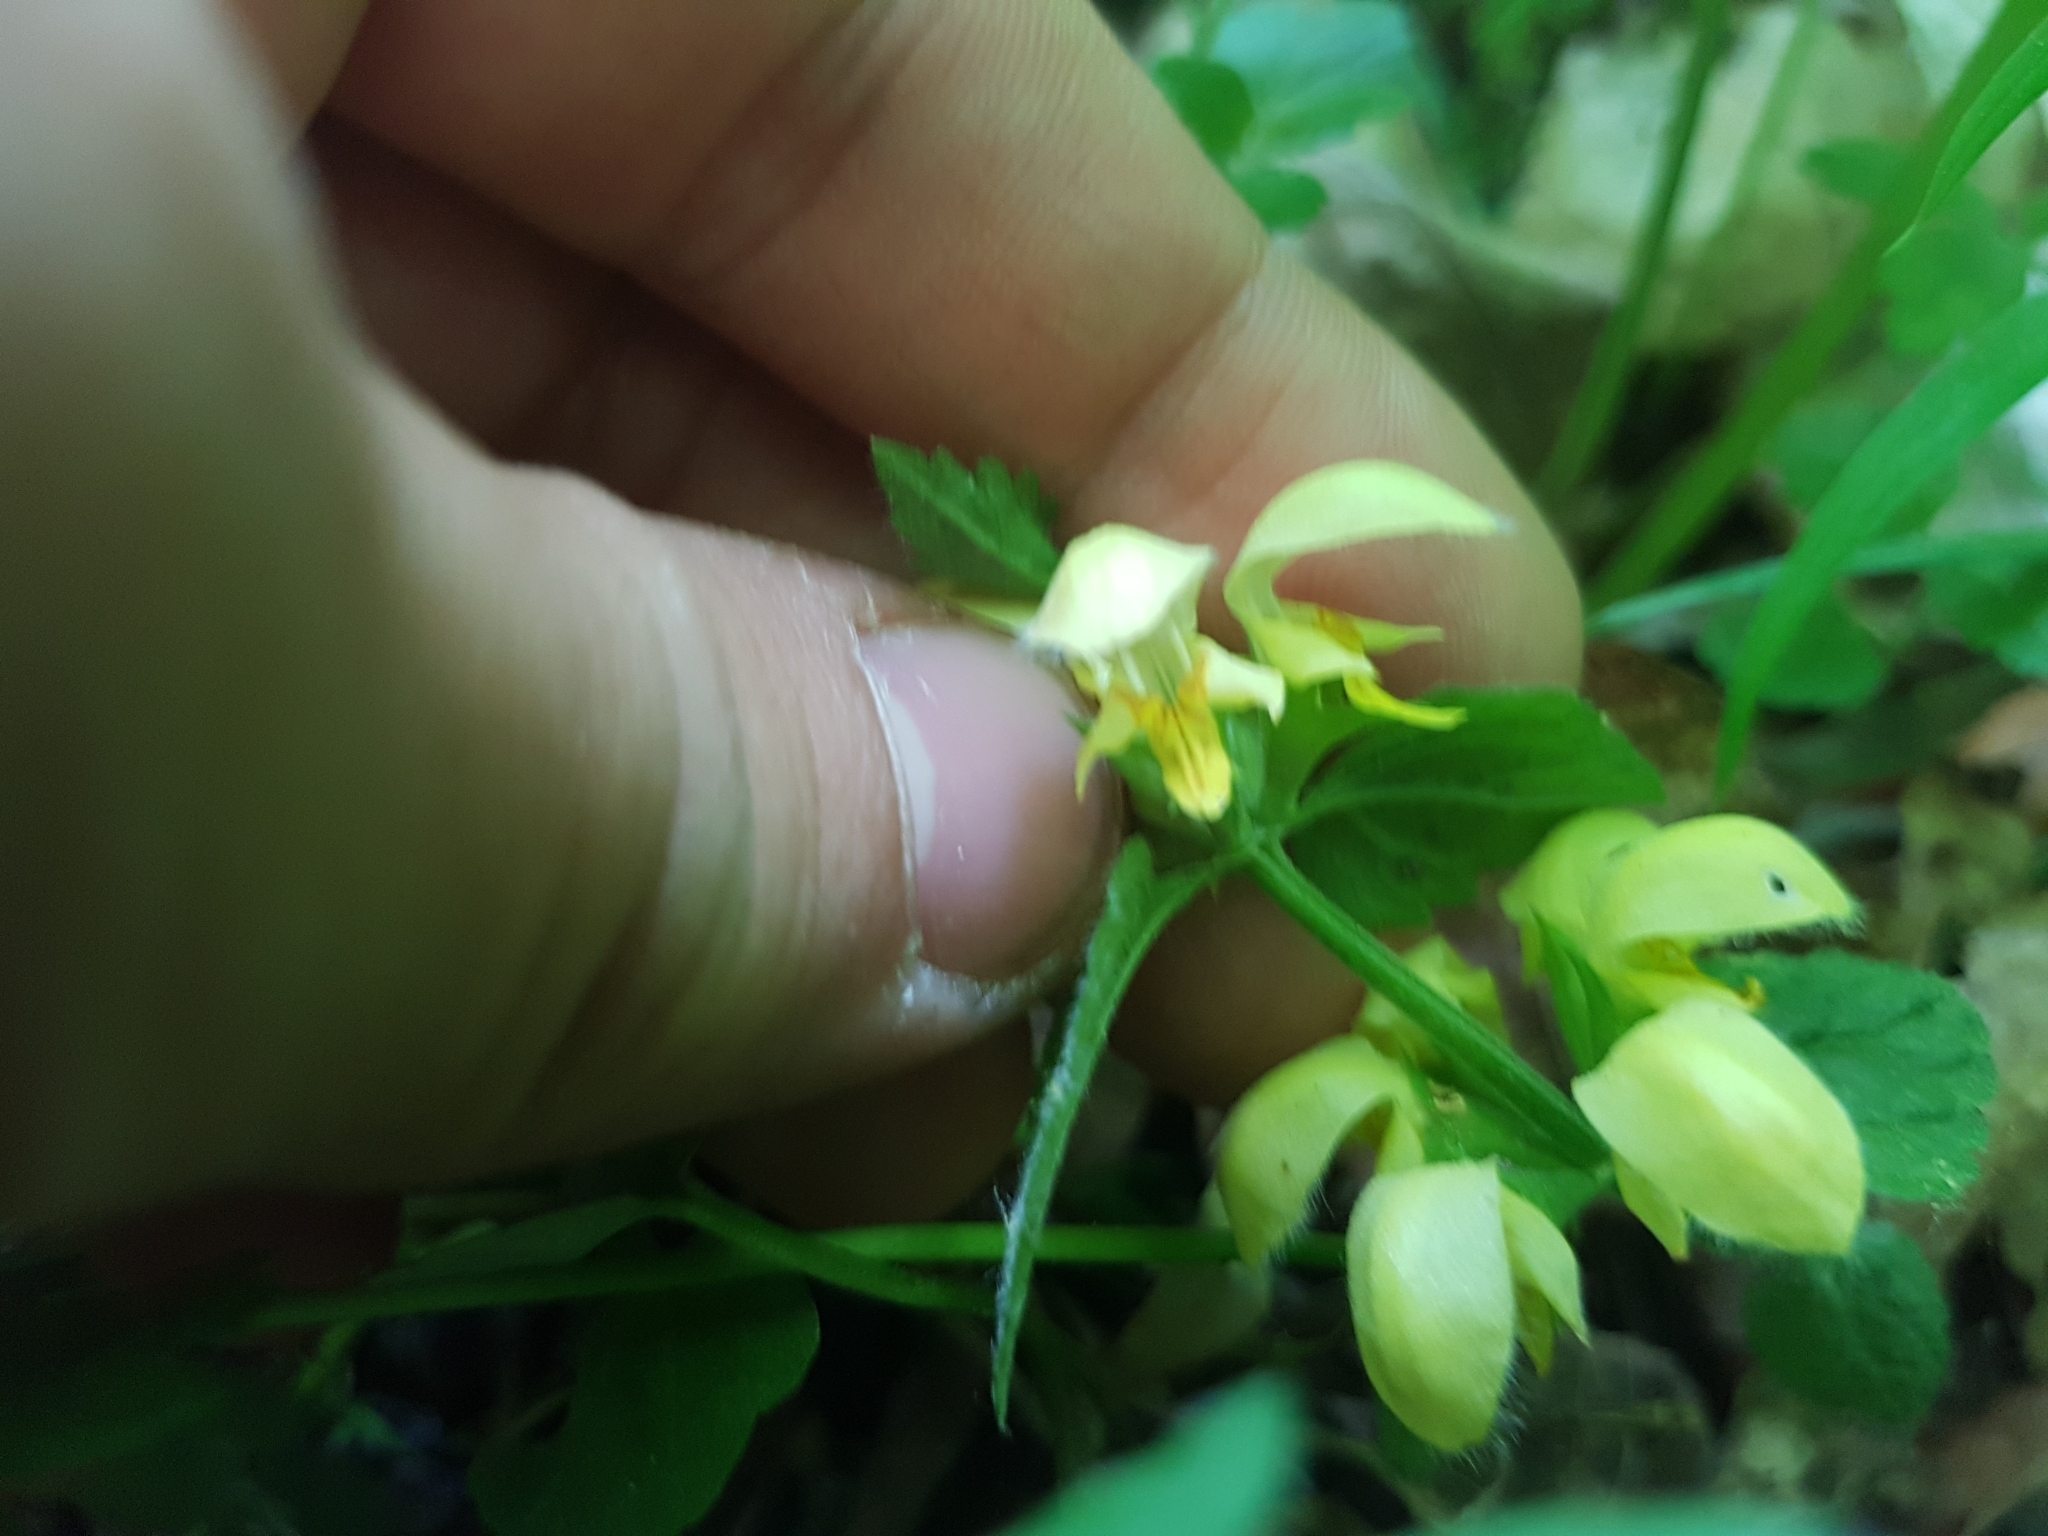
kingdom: Plantae
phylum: Tracheophyta
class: Magnoliopsida
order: Lamiales
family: Lamiaceae
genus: Lamium
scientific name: Lamium galeobdolon
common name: Yellow archangel
